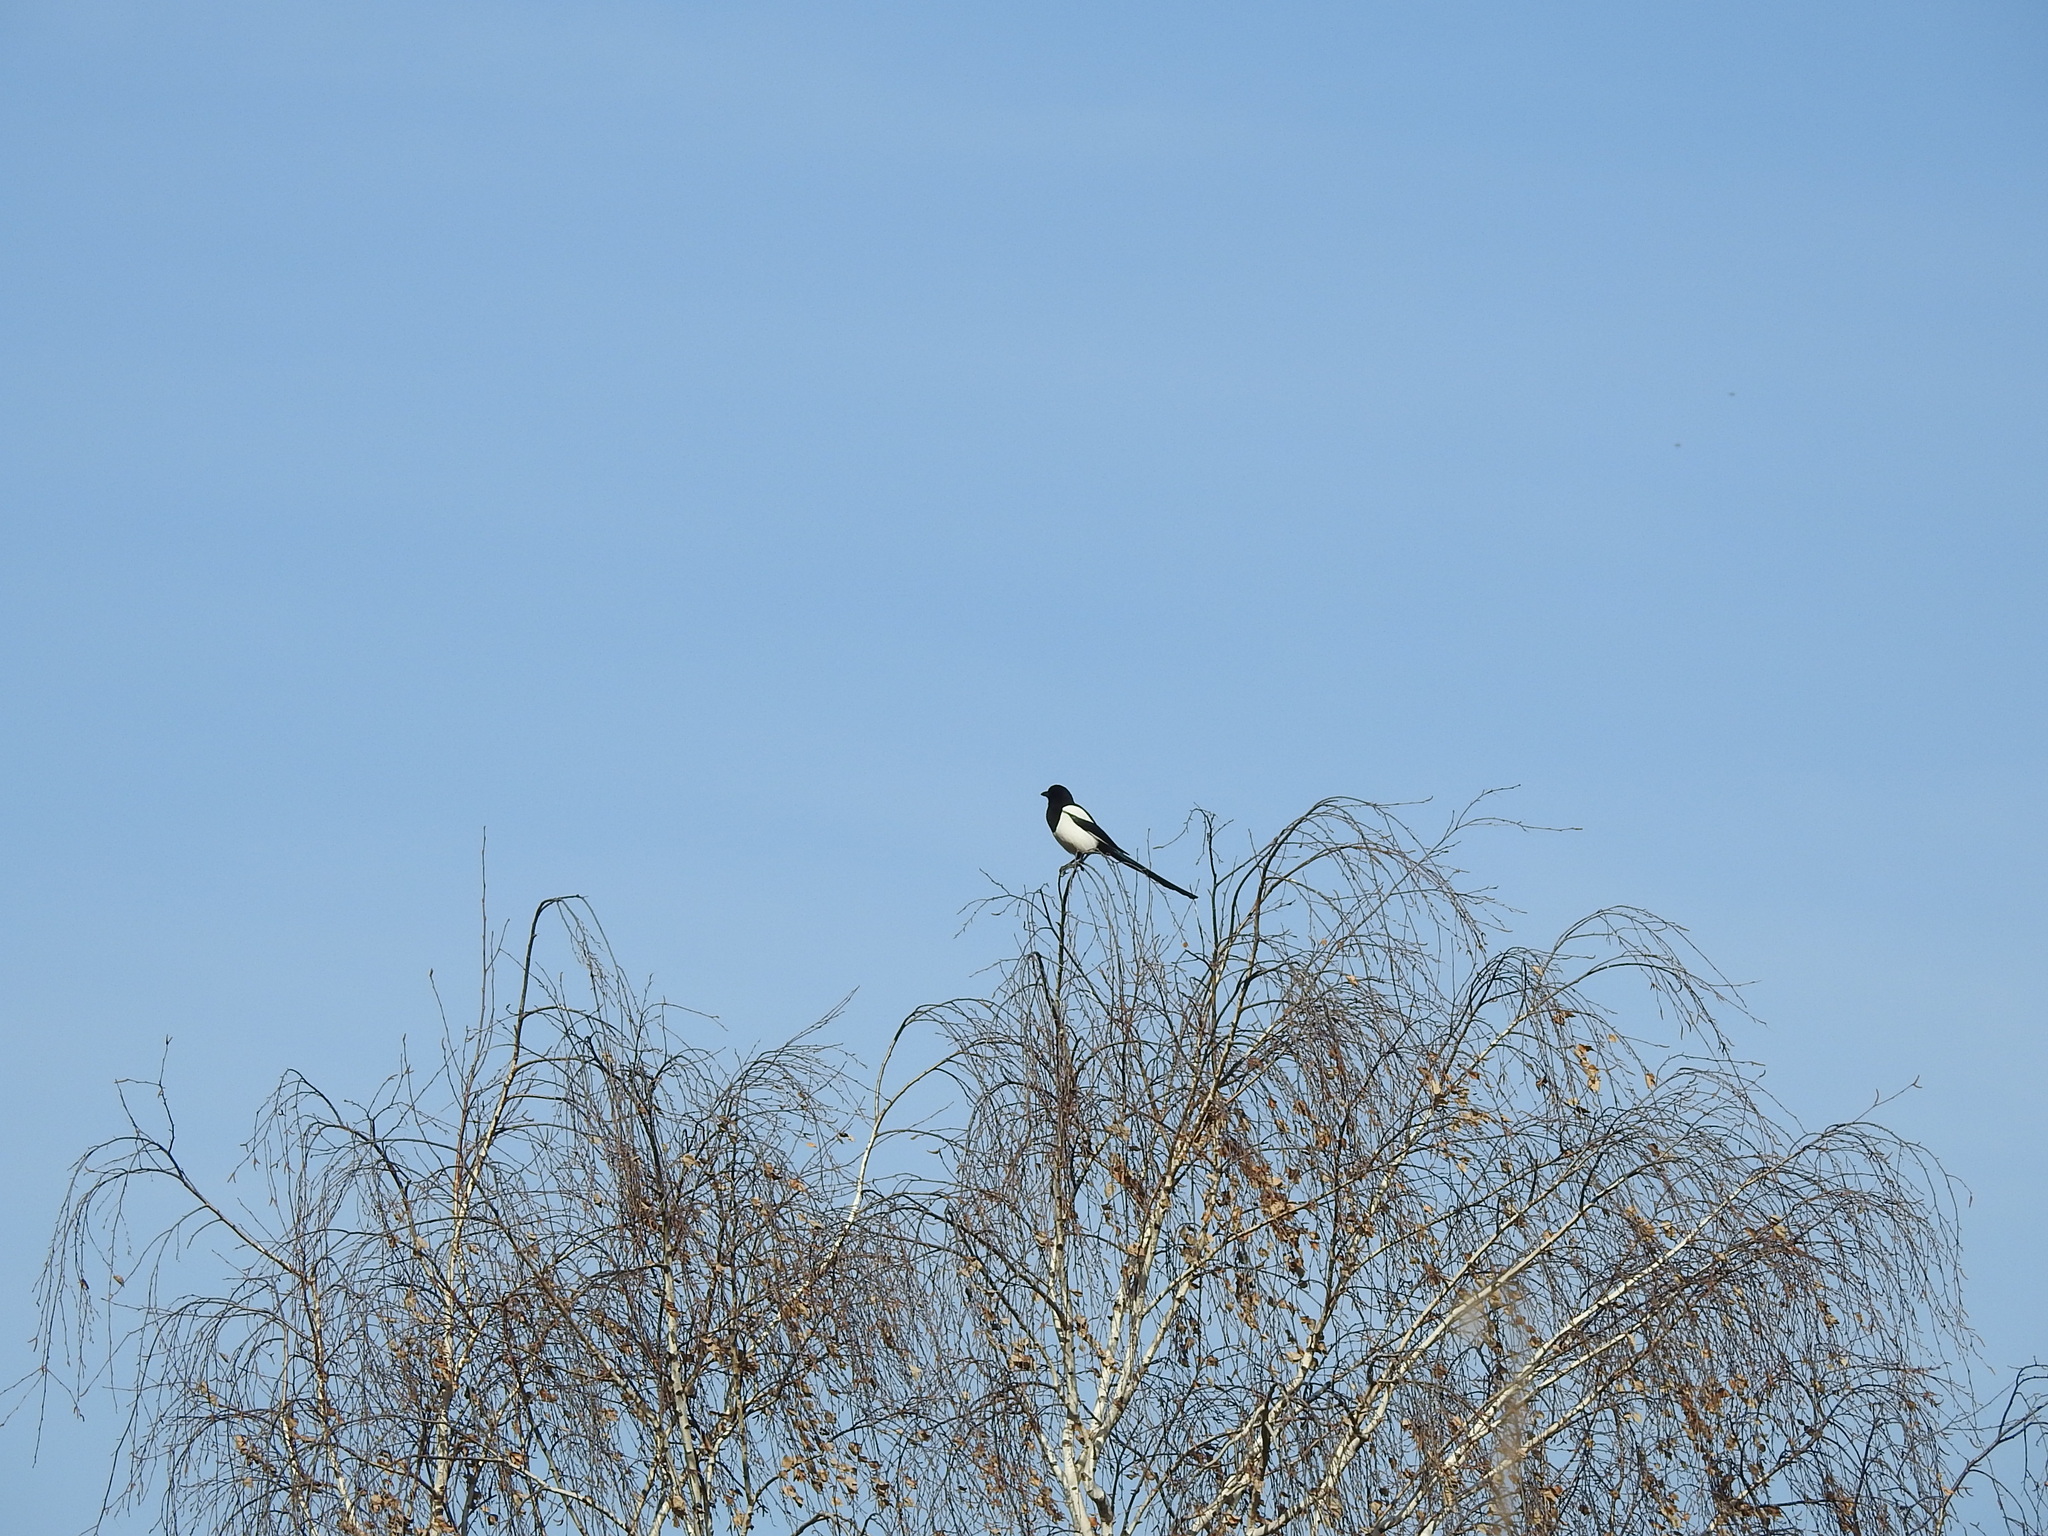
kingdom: Animalia
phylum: Chordata
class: Aves
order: Passeriformes
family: Corvidae
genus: Pica
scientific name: Pica pica
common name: Eurasian magpie
